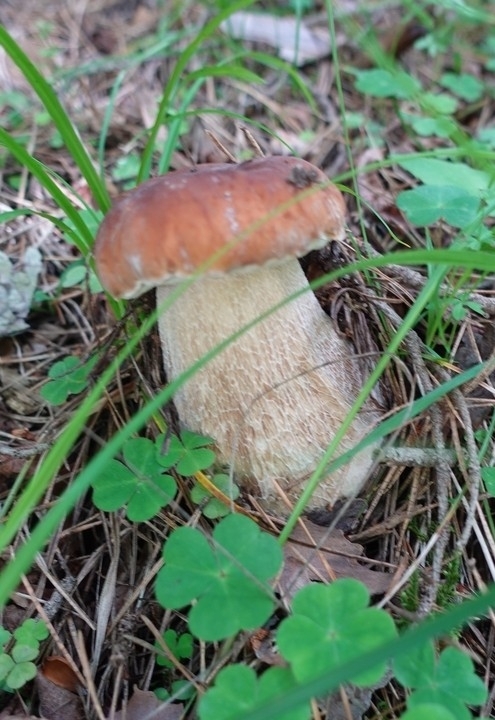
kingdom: Fungi
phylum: Basidiomycota
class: Agaricomycetes
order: Boletales
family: Boletaceae
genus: Boletus
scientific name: Boletus edulis
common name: Cep
